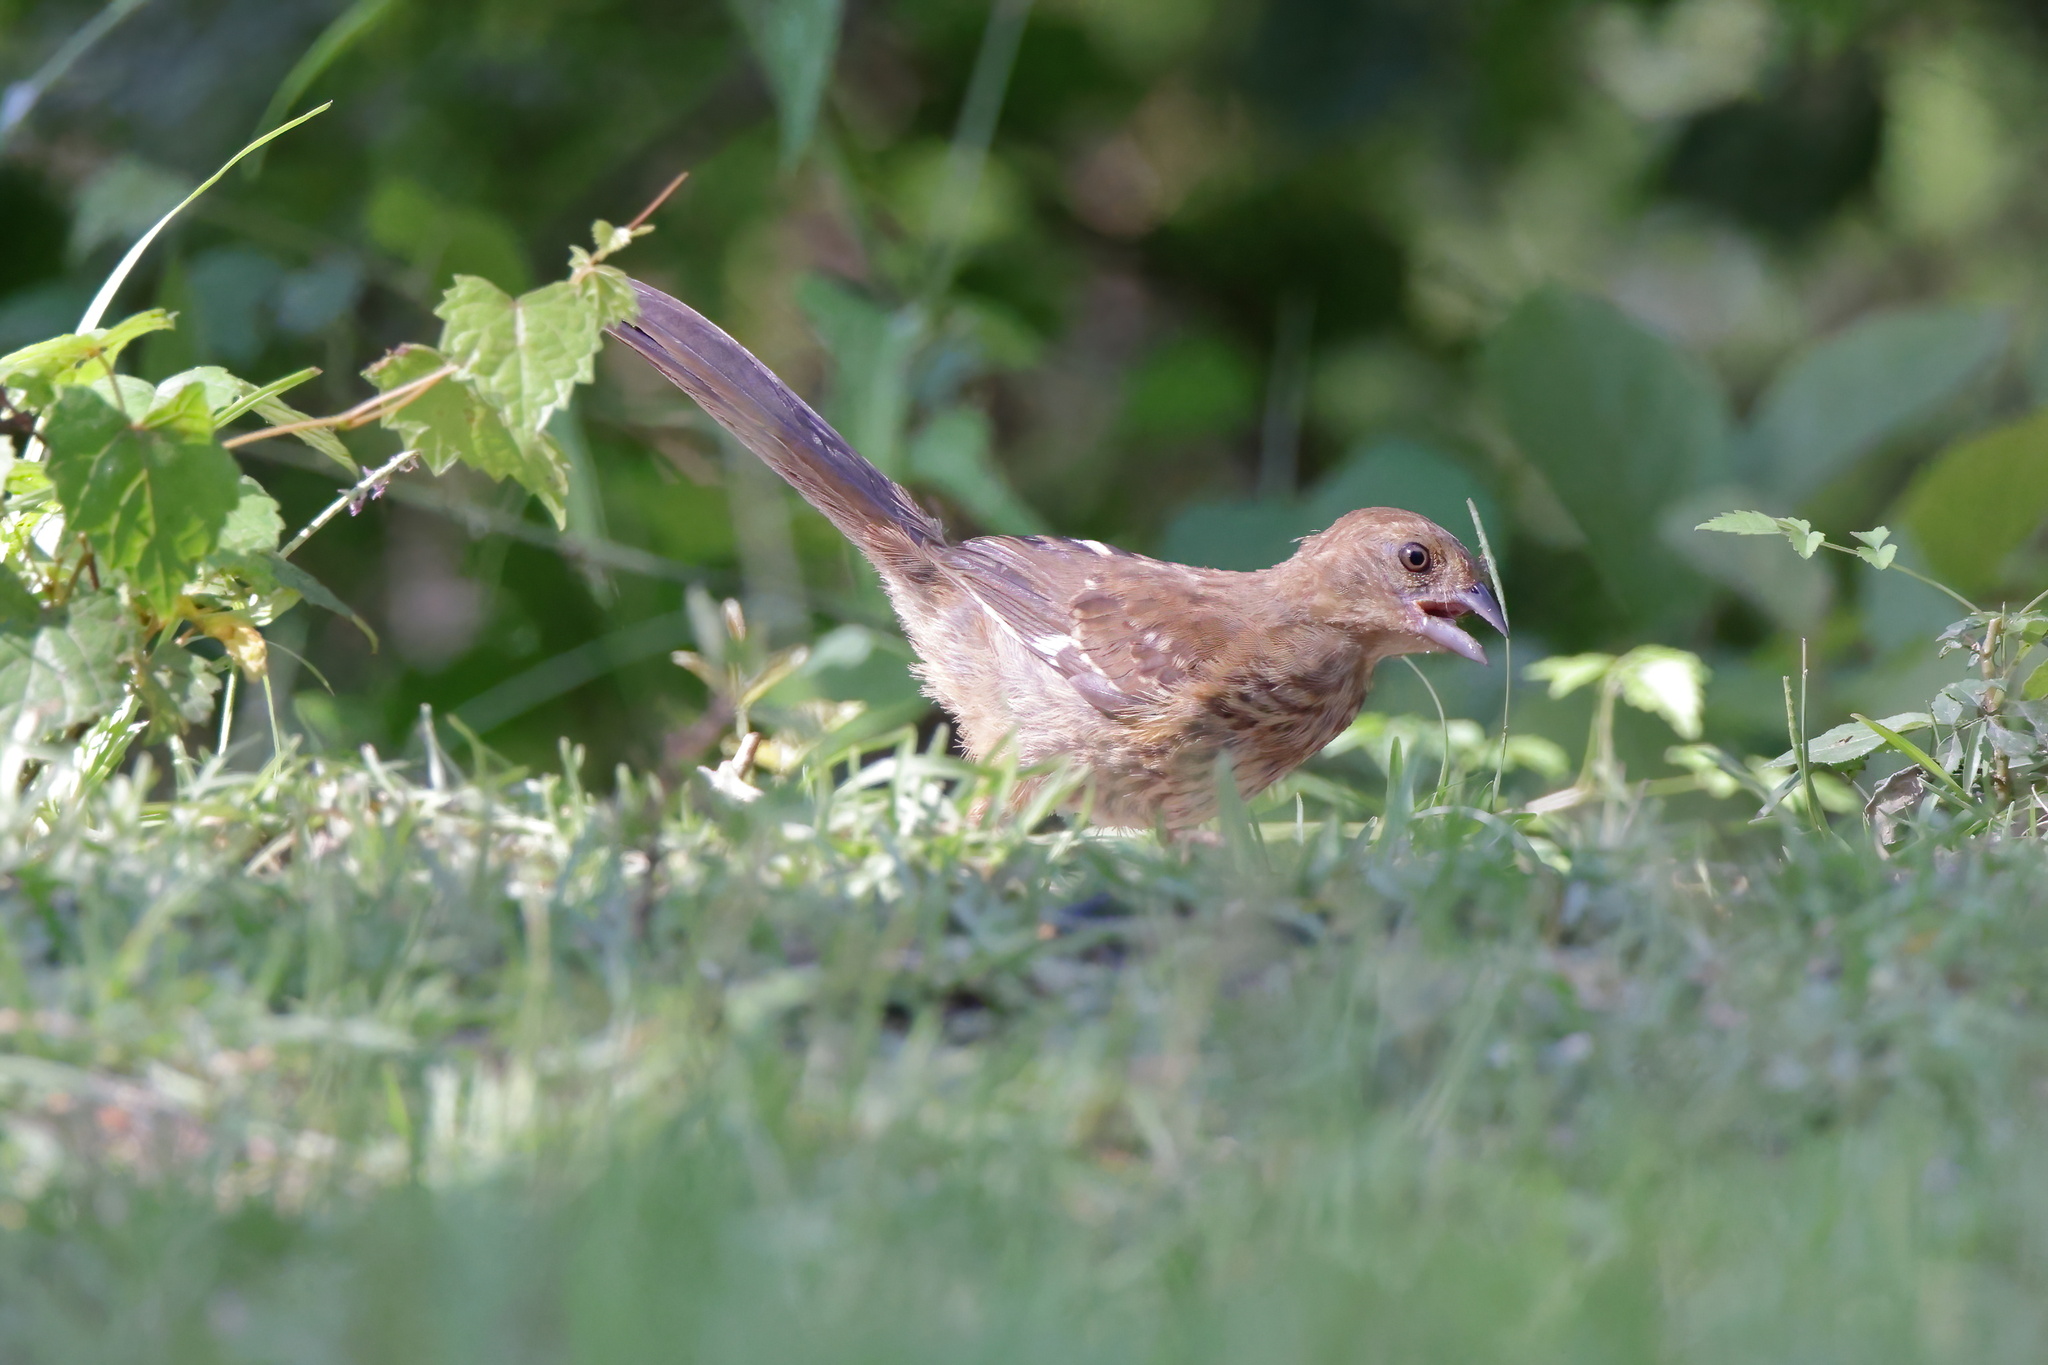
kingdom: Animalia
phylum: Chordata
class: Aves
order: Passeriformes
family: Passerellidae
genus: Pipilo
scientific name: Pipilo erythrophthalmus
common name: Eastern towhee
